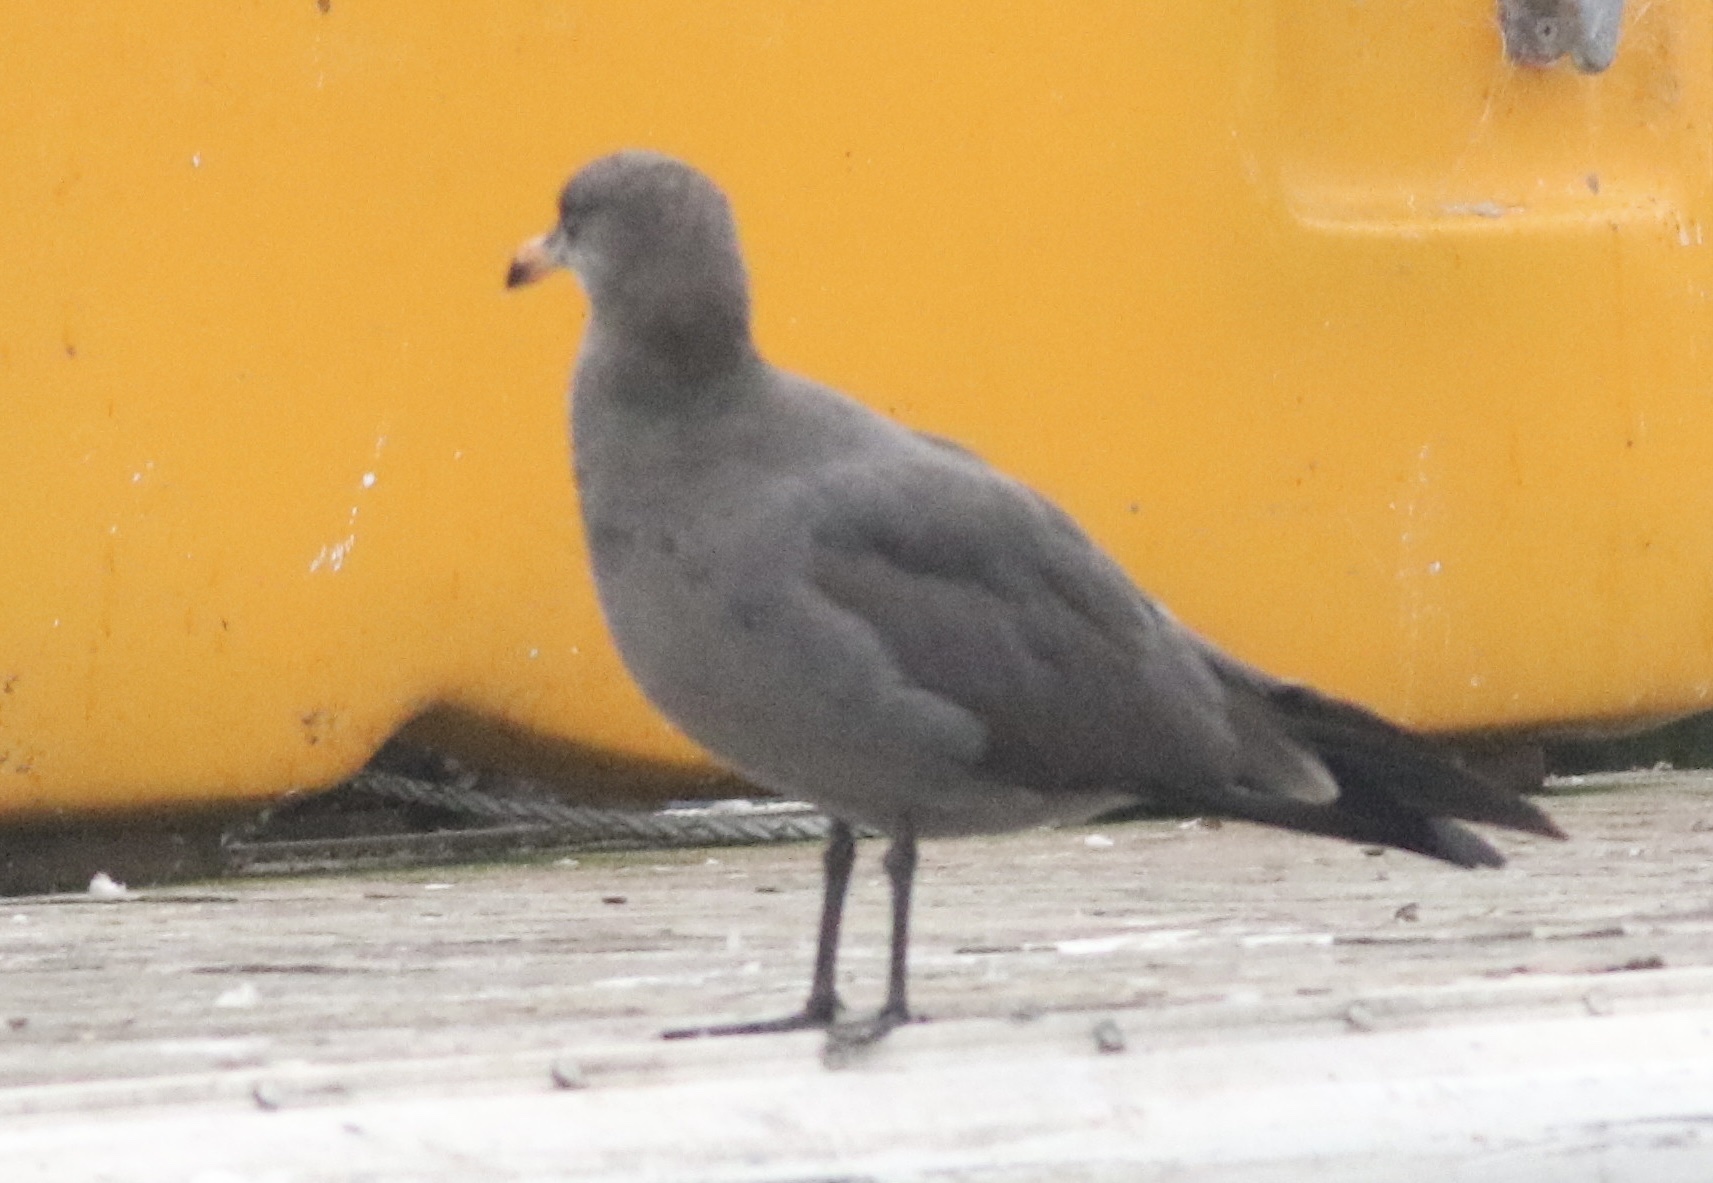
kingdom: Animalia
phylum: Chordata
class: Aves
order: Charadriiformes
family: Laridae
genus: Larus
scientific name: Larus heermanni
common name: Heermann's gull
